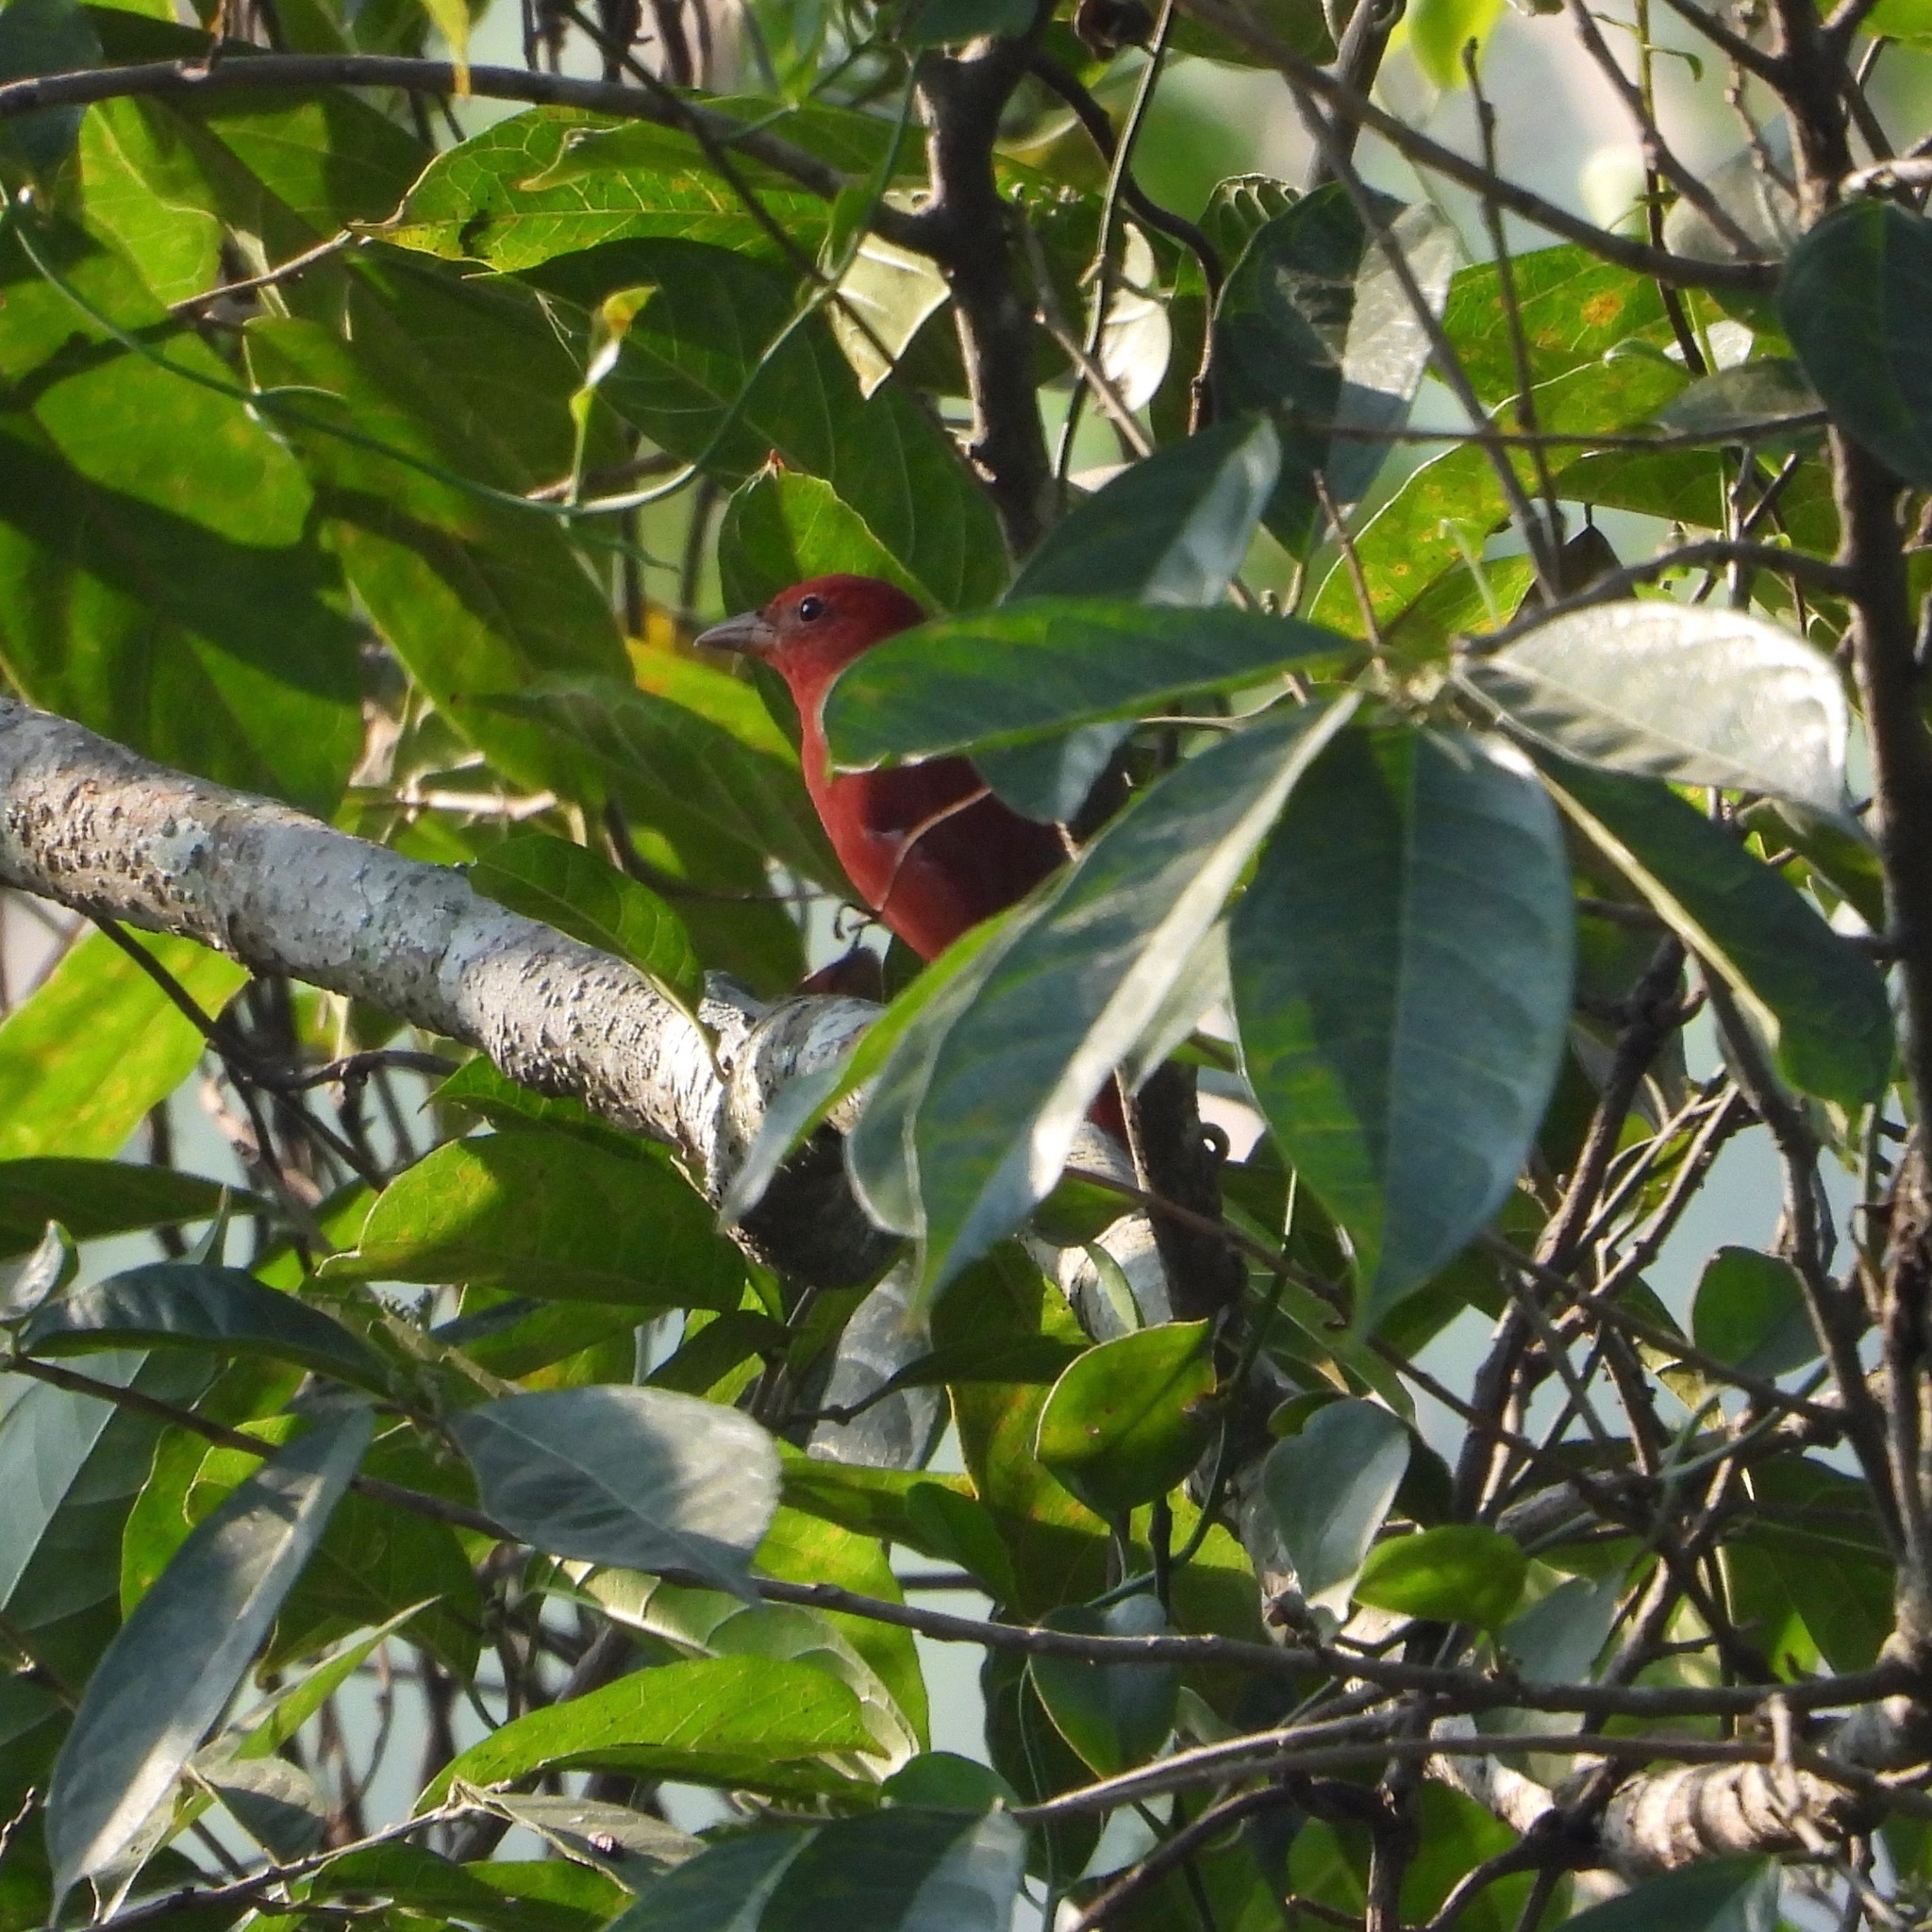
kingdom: Animalia
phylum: Chordata
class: Aves
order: Passeriformes
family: Cardinalidae
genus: Piranga
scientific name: Piranga rubra
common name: Summer tanager
